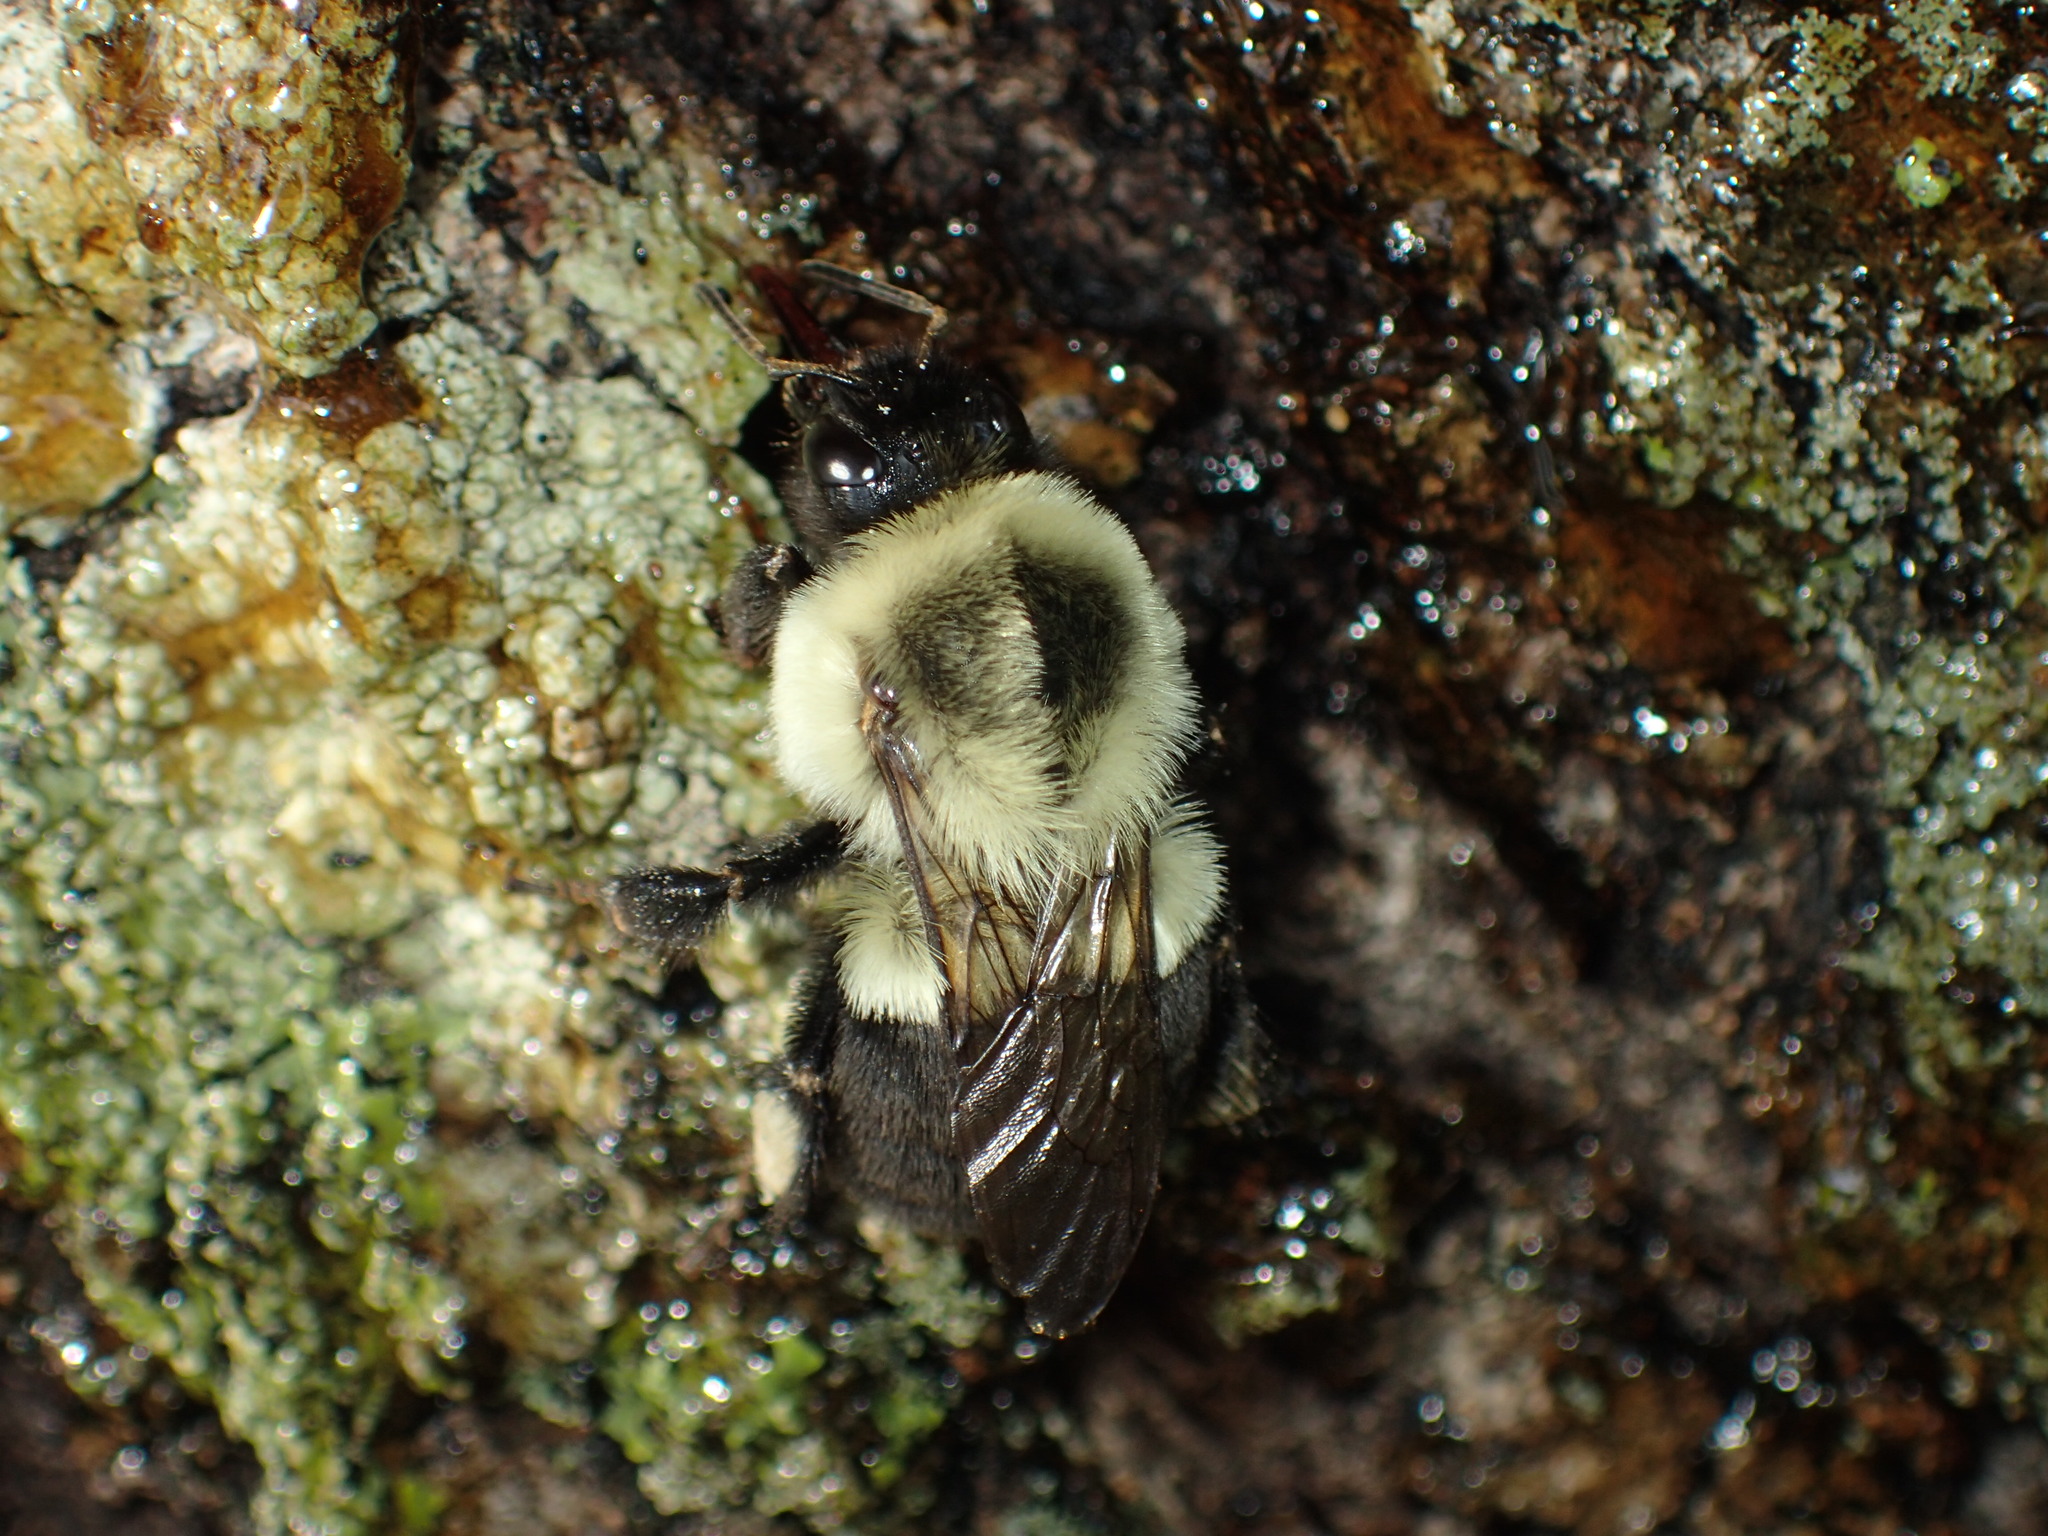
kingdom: Animalia
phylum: Arthropoda
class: Insecta
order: Hymenoptera
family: Apidae
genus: Bombus
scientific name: Bombus impatiens
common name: Common eastern bumble bee
